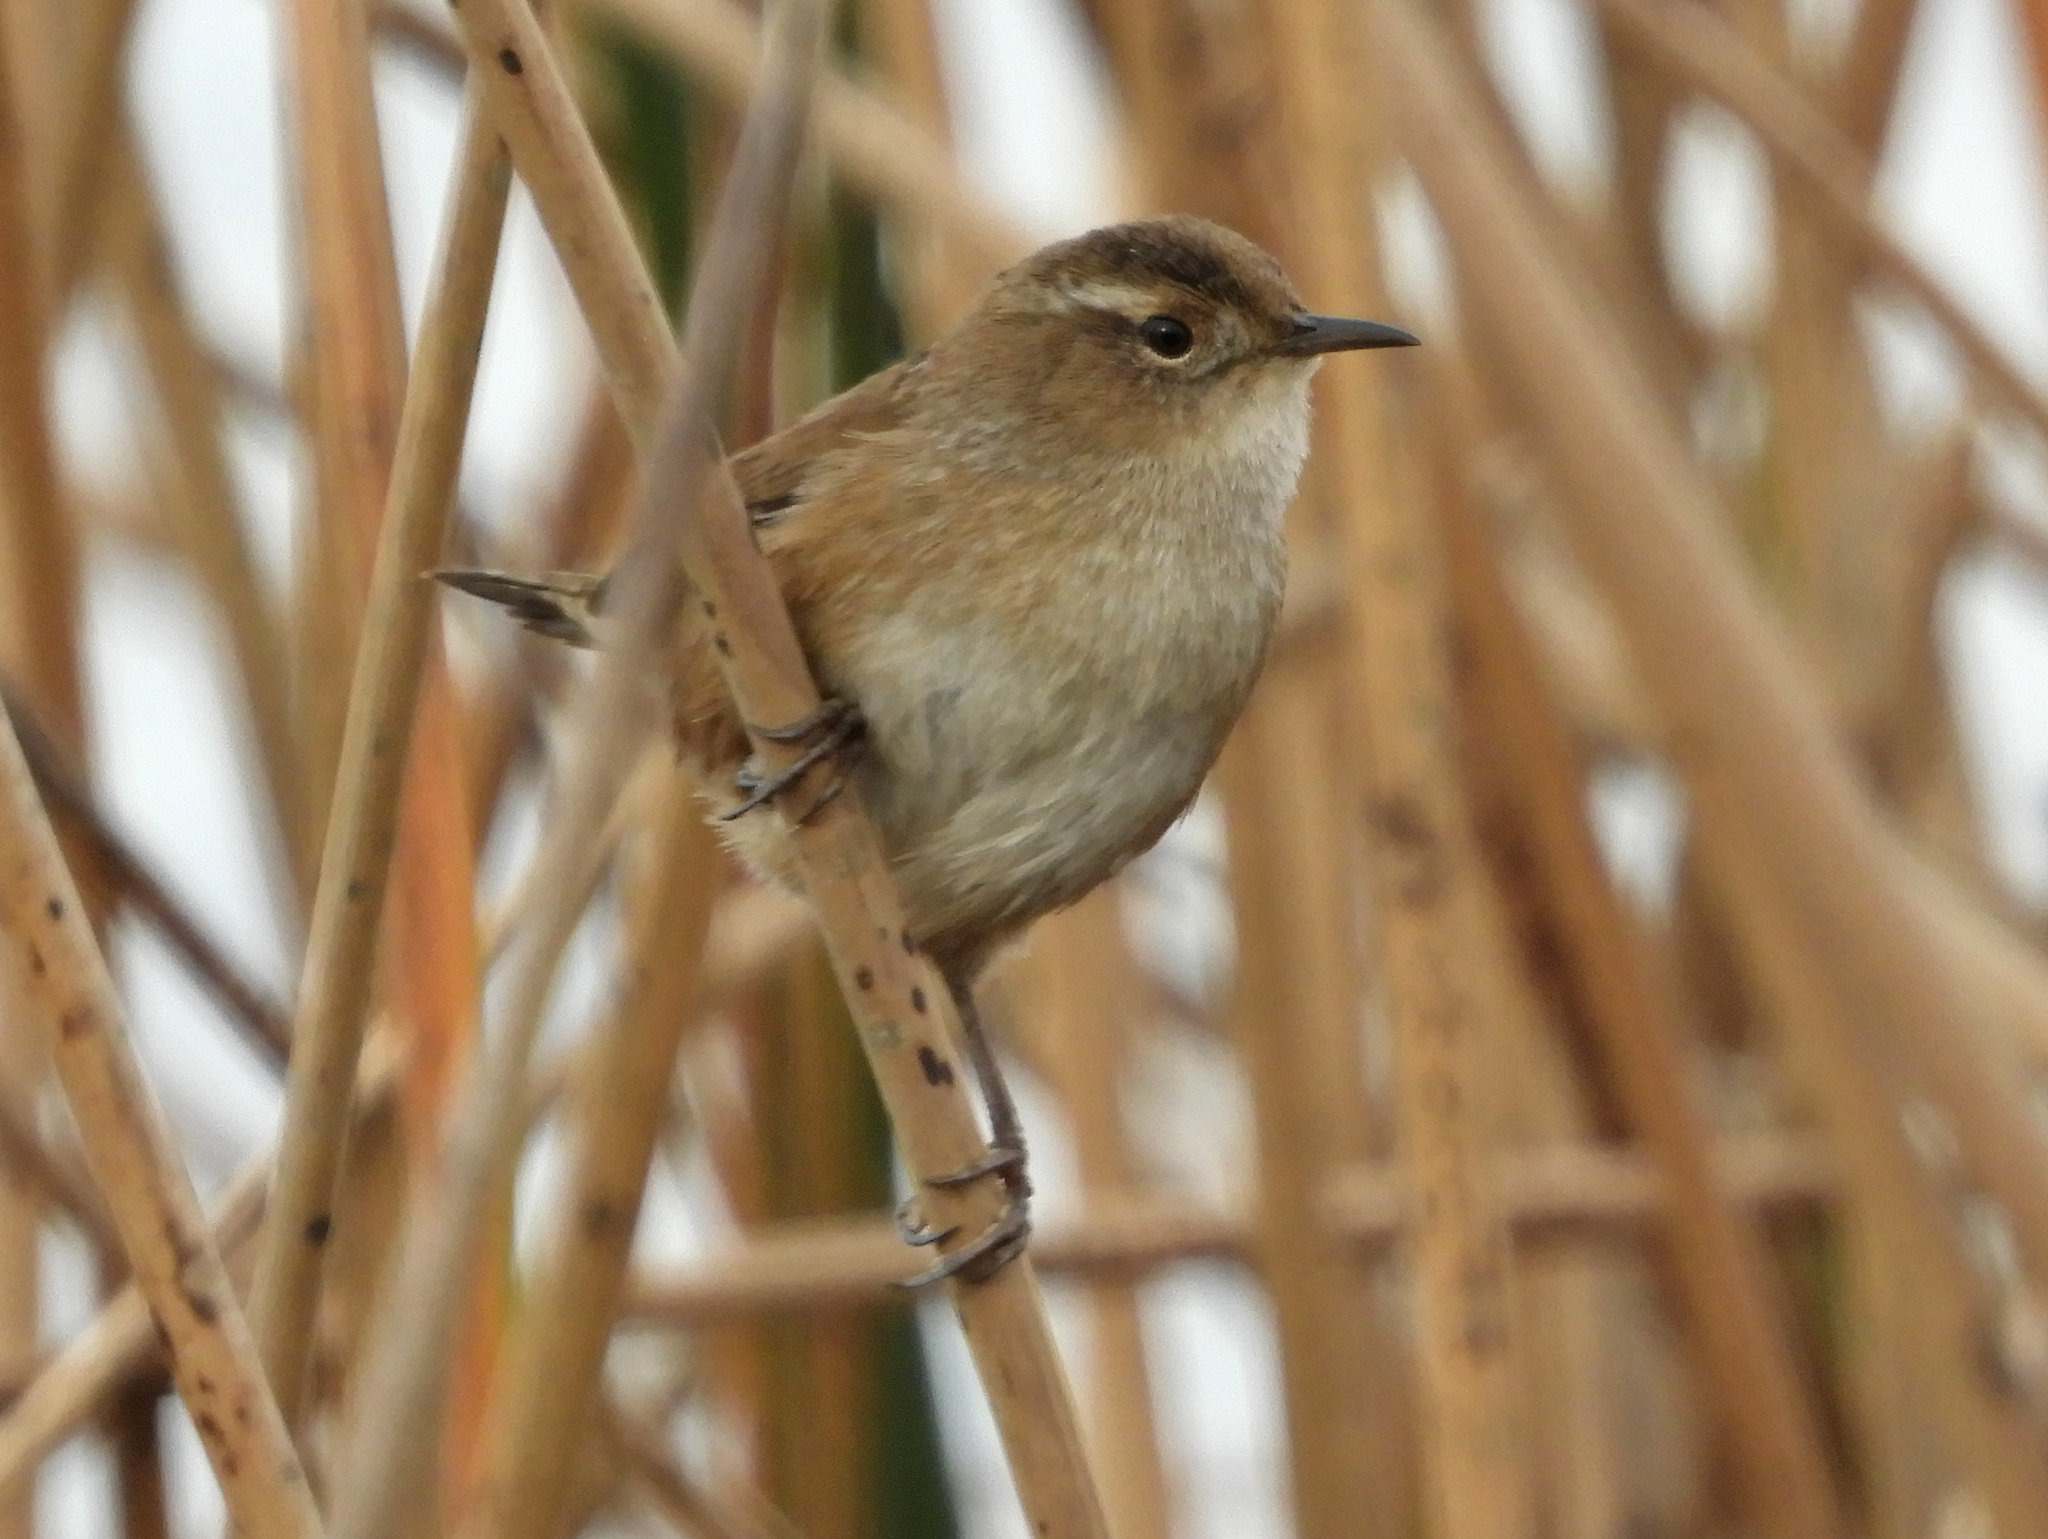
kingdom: Animalia
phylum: Chordata
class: Aves
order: Passeriformes
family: Troglodytidae
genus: Cistothorus
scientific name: Cistothorus palustris
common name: Marsh wren
